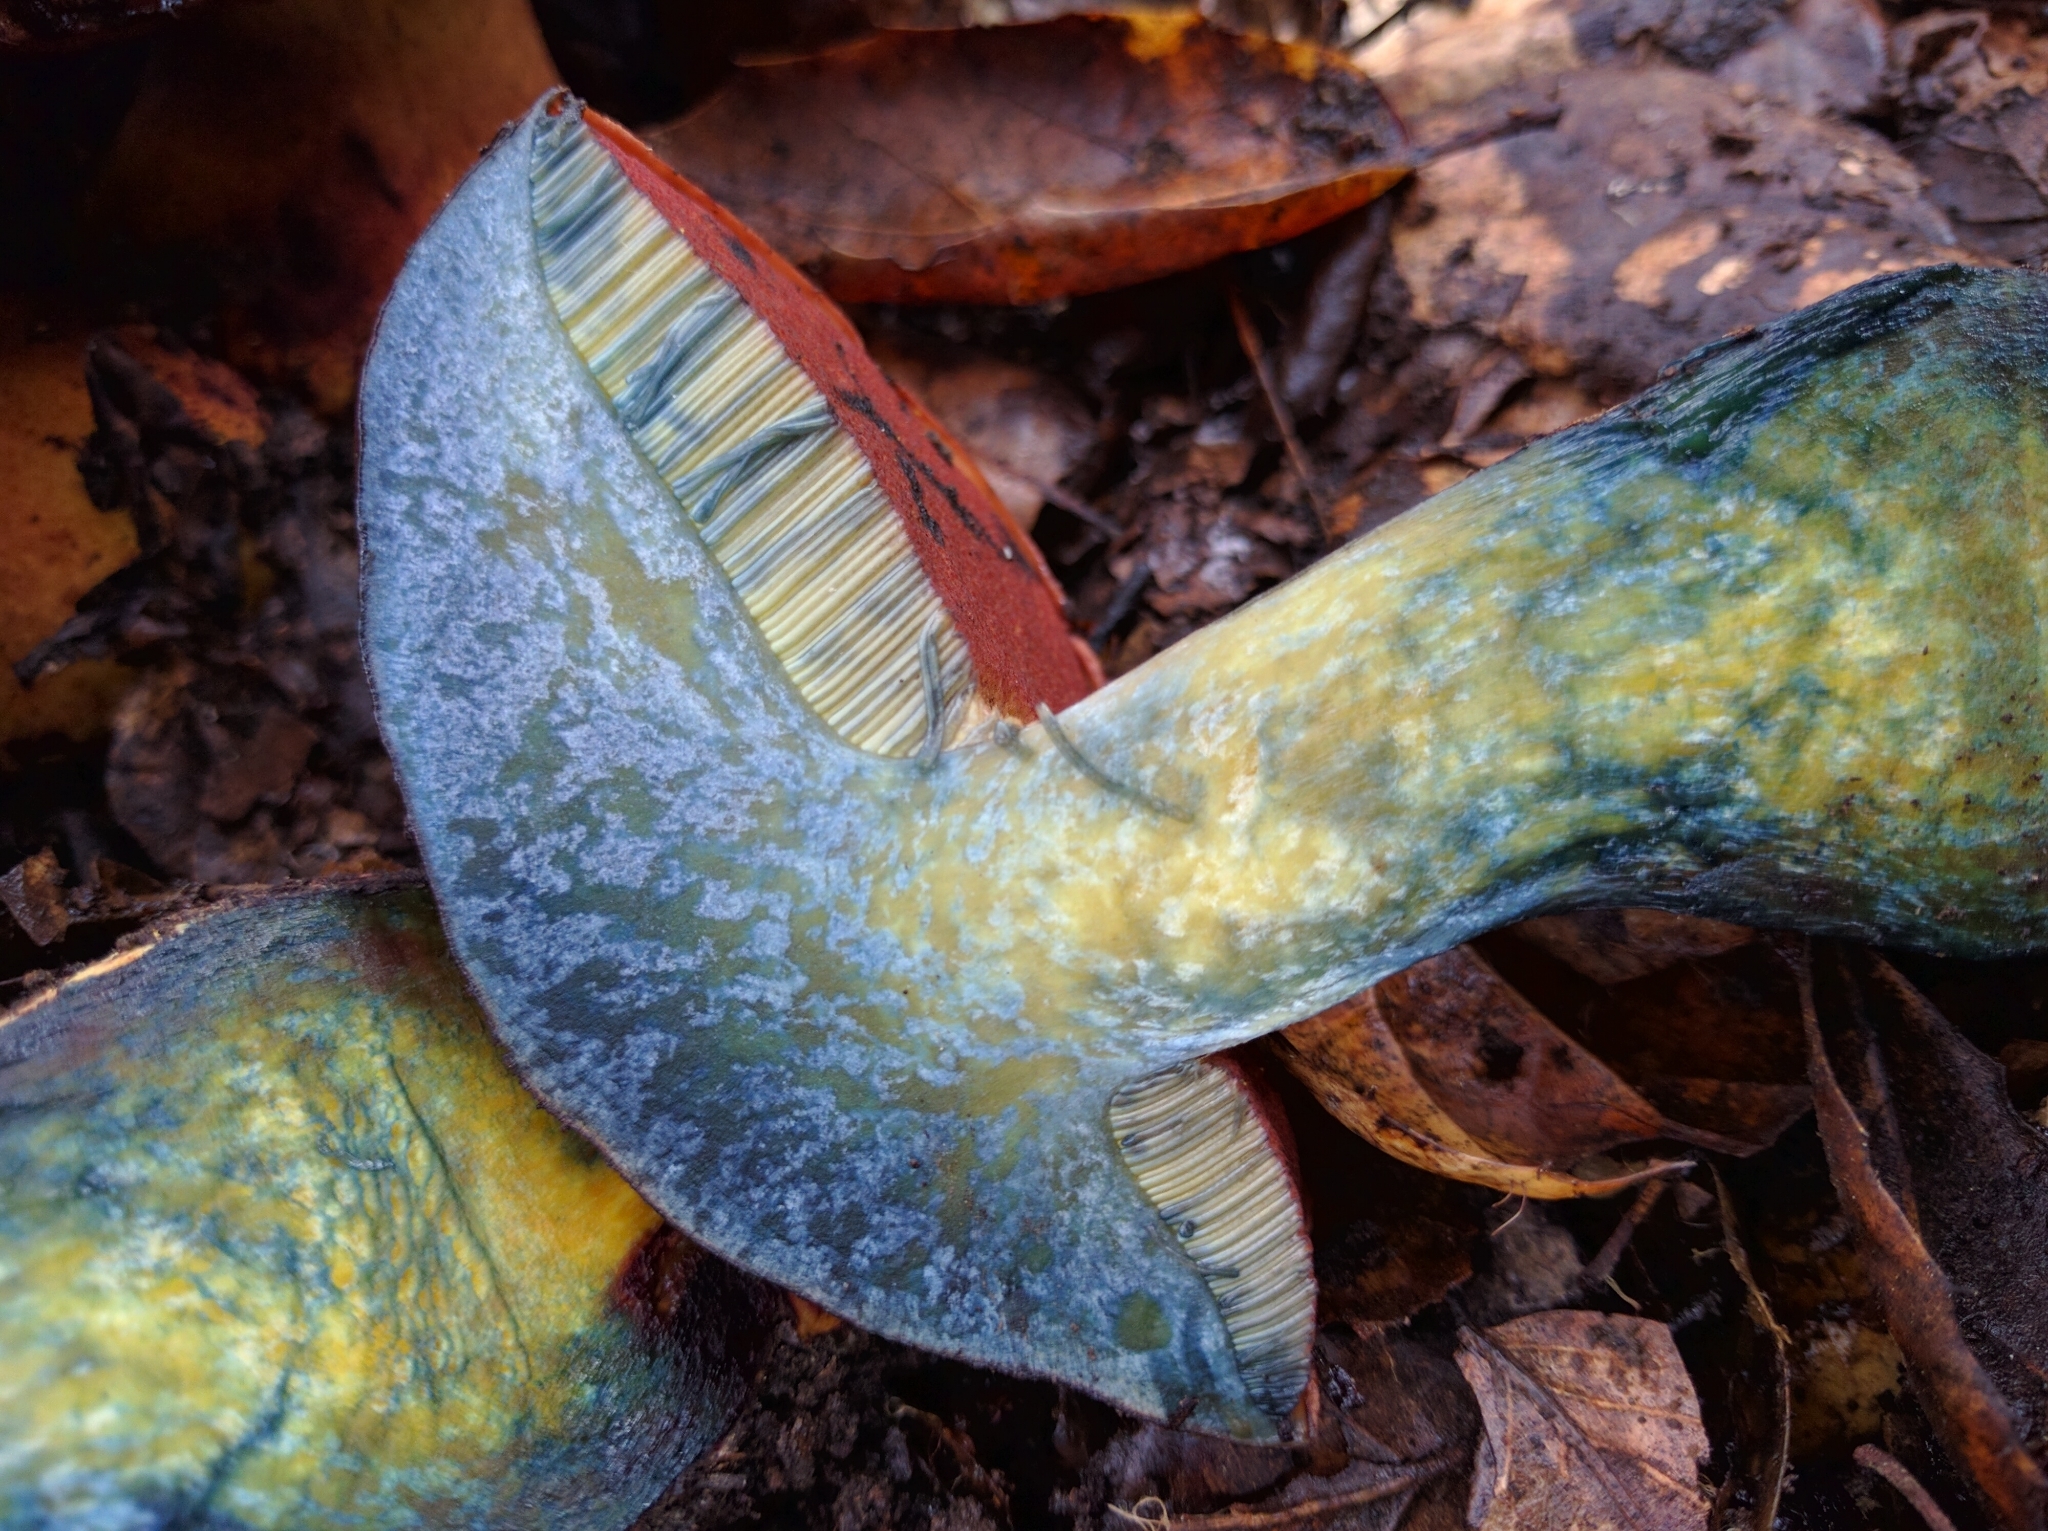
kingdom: Fungi
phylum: Basidiomycota
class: Agaricomycetes
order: Boletales
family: Boletaceae
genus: Suillellus
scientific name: Suillellus amygdalinus
